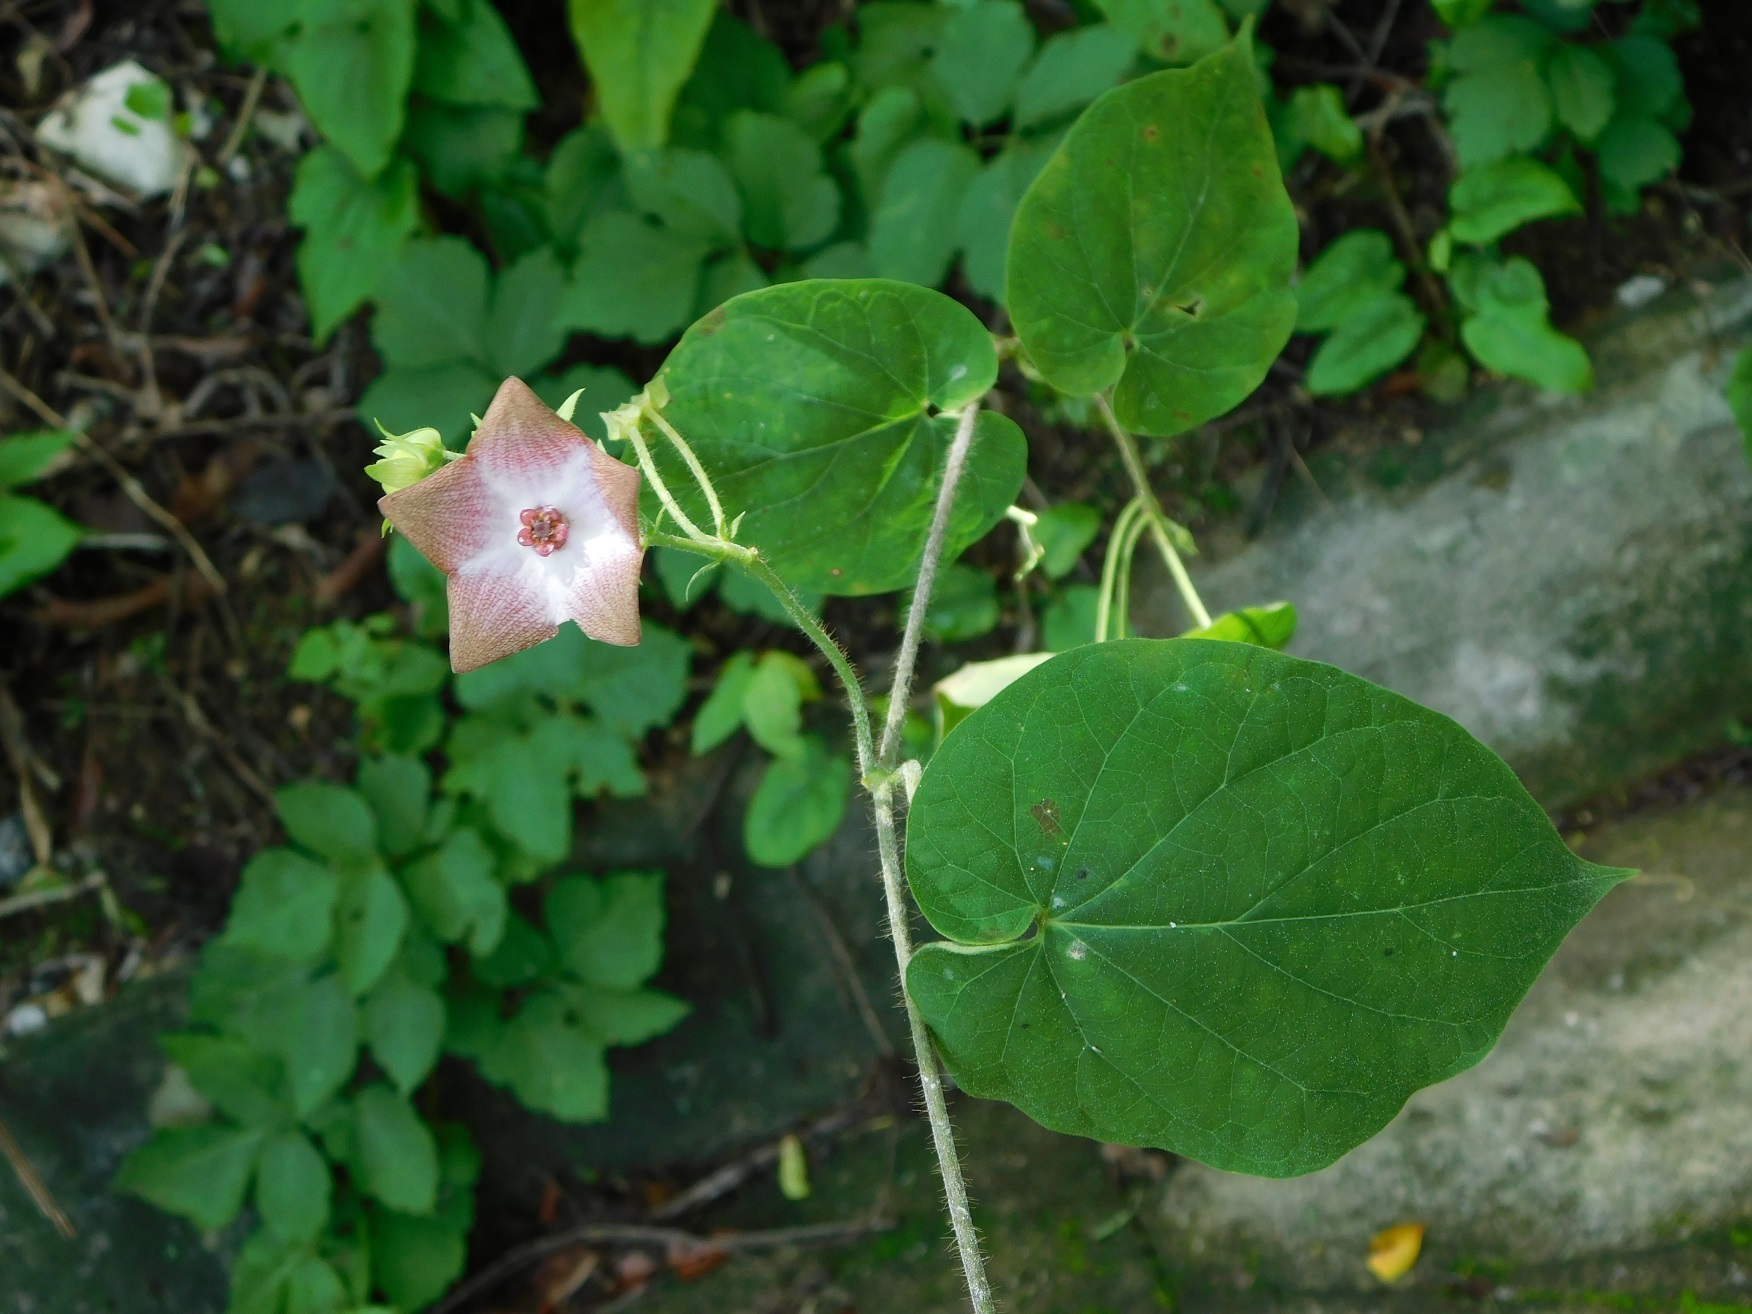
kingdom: Plantae
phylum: Tracheophyta
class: Magnoliopsida
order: Gentianales
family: Apocynaceae
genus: Polystemma
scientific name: Polystemma guatemalense
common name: Arborescente rattan
